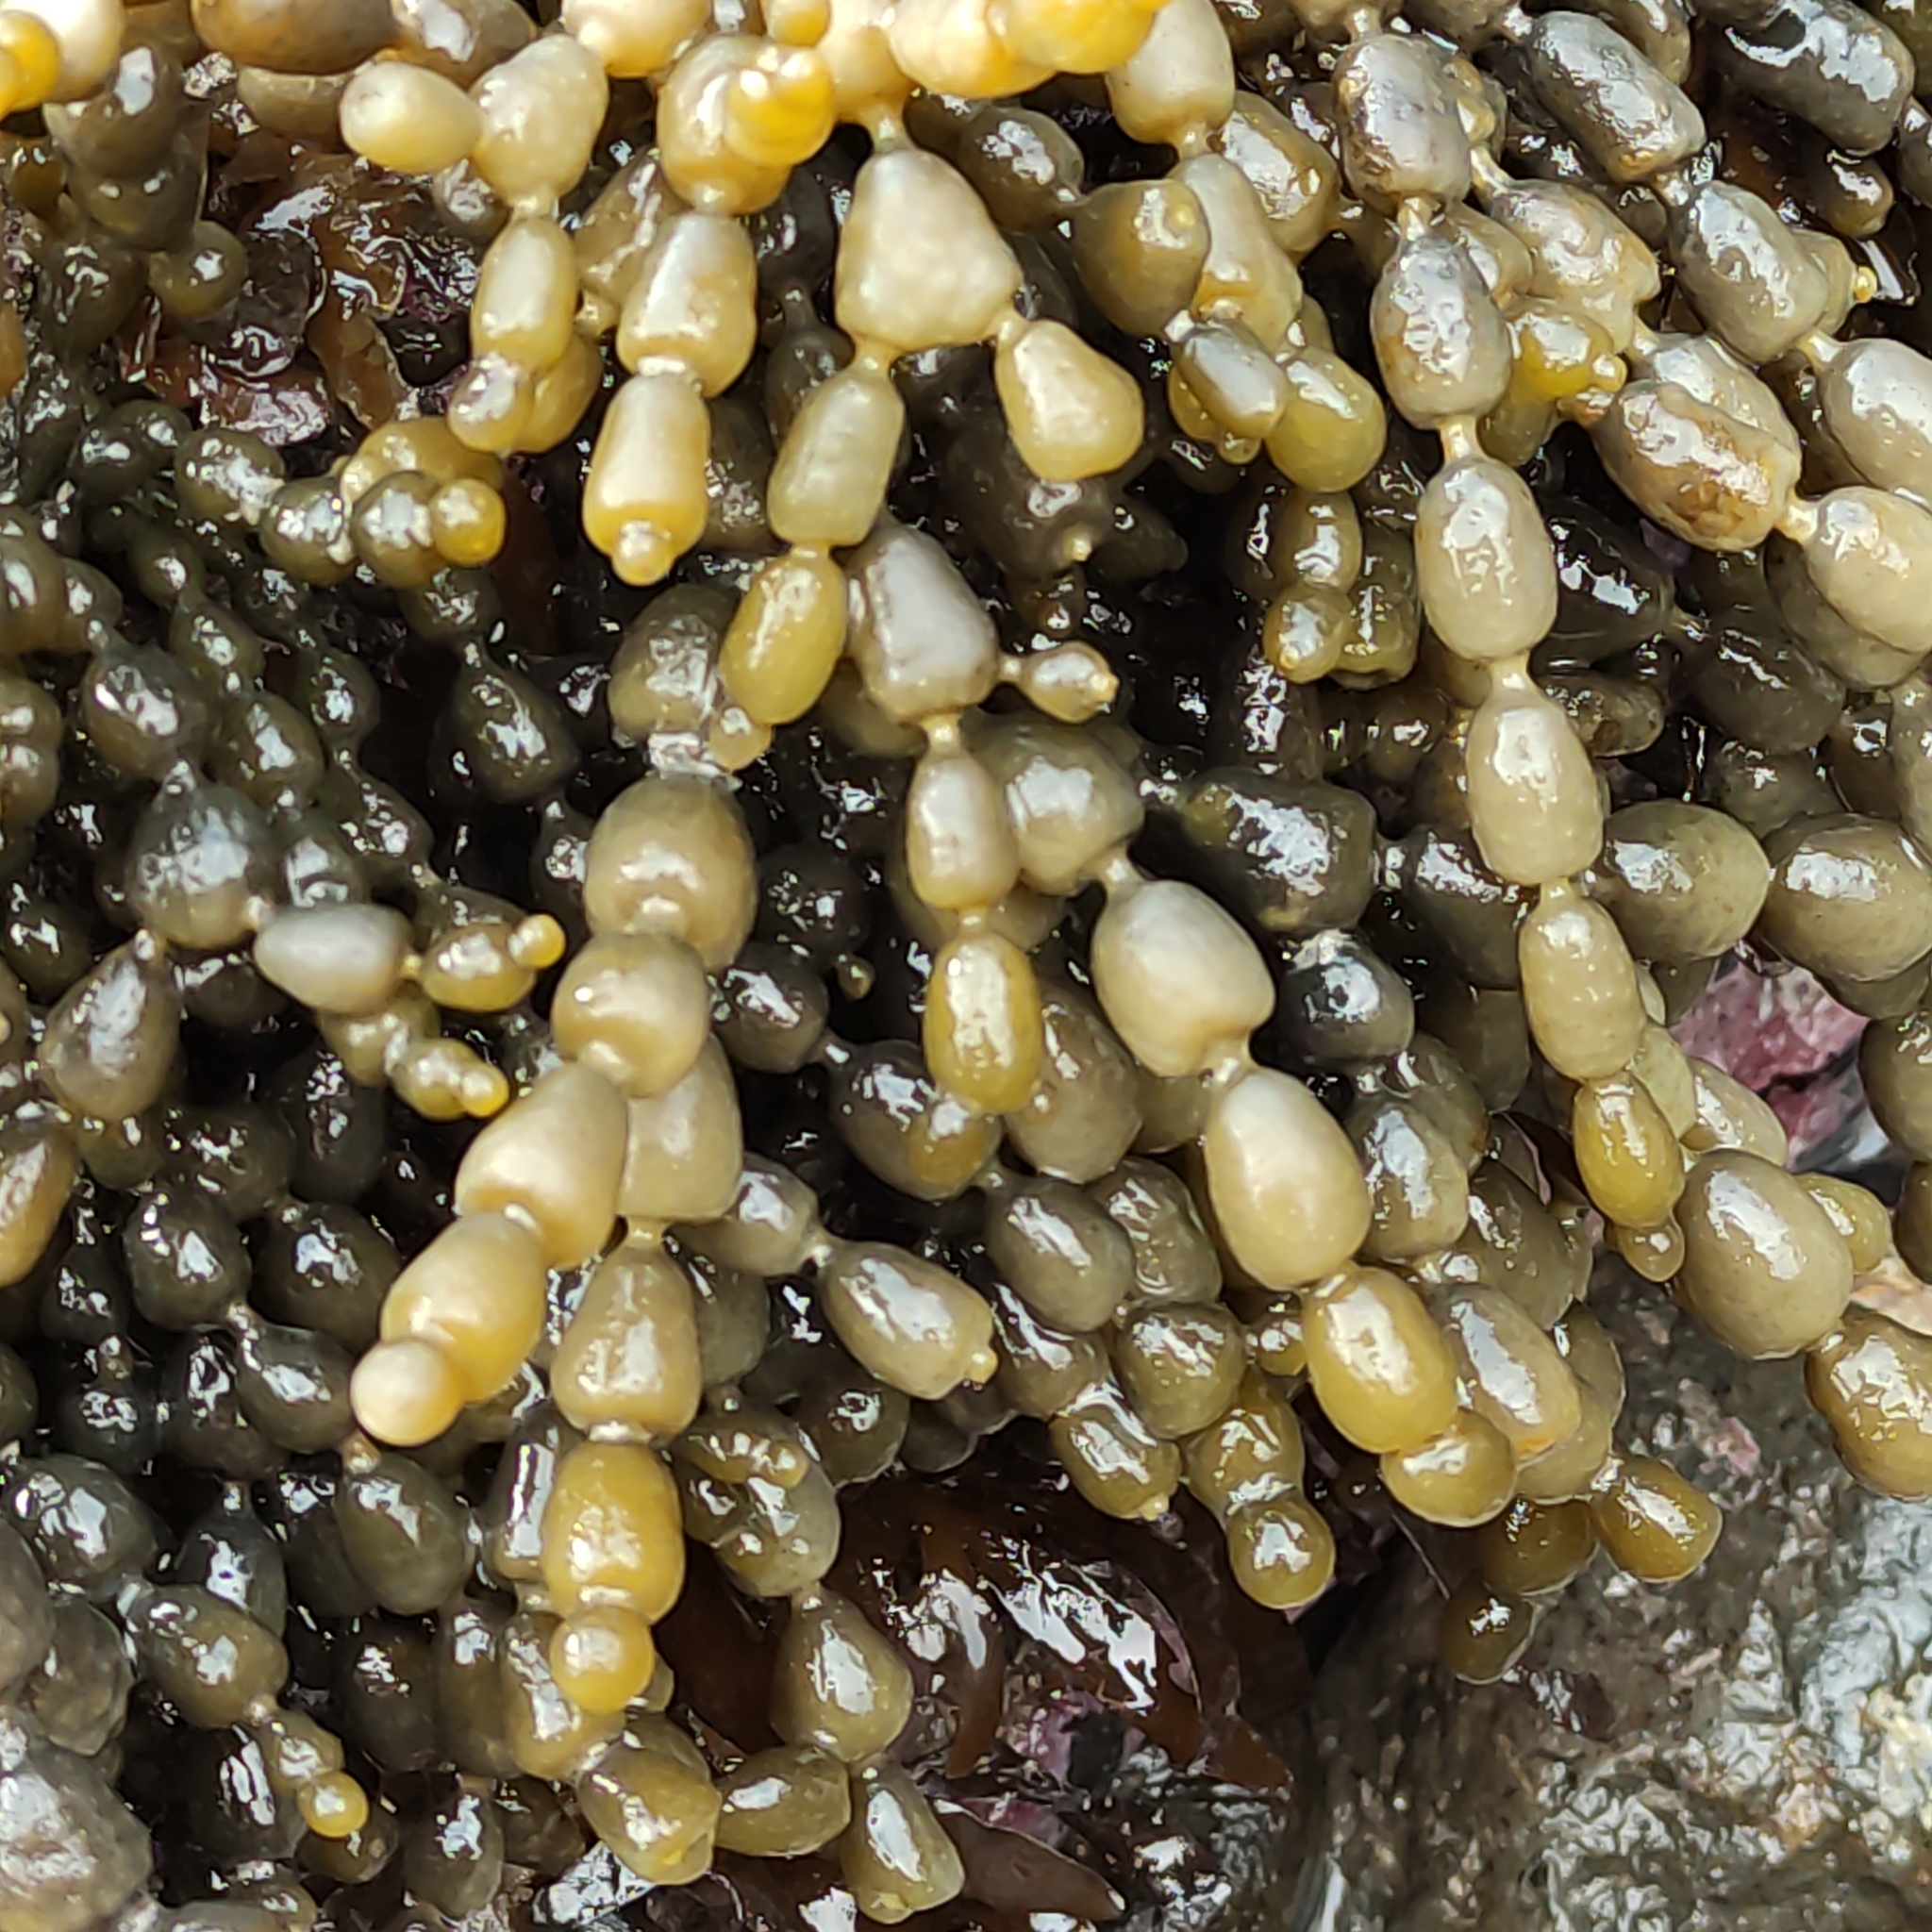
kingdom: Chromista
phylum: Ochrophyta
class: Phaeophyceae
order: Fucales
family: Hormosiraceae
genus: Hormosira
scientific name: Hormosira banksii
